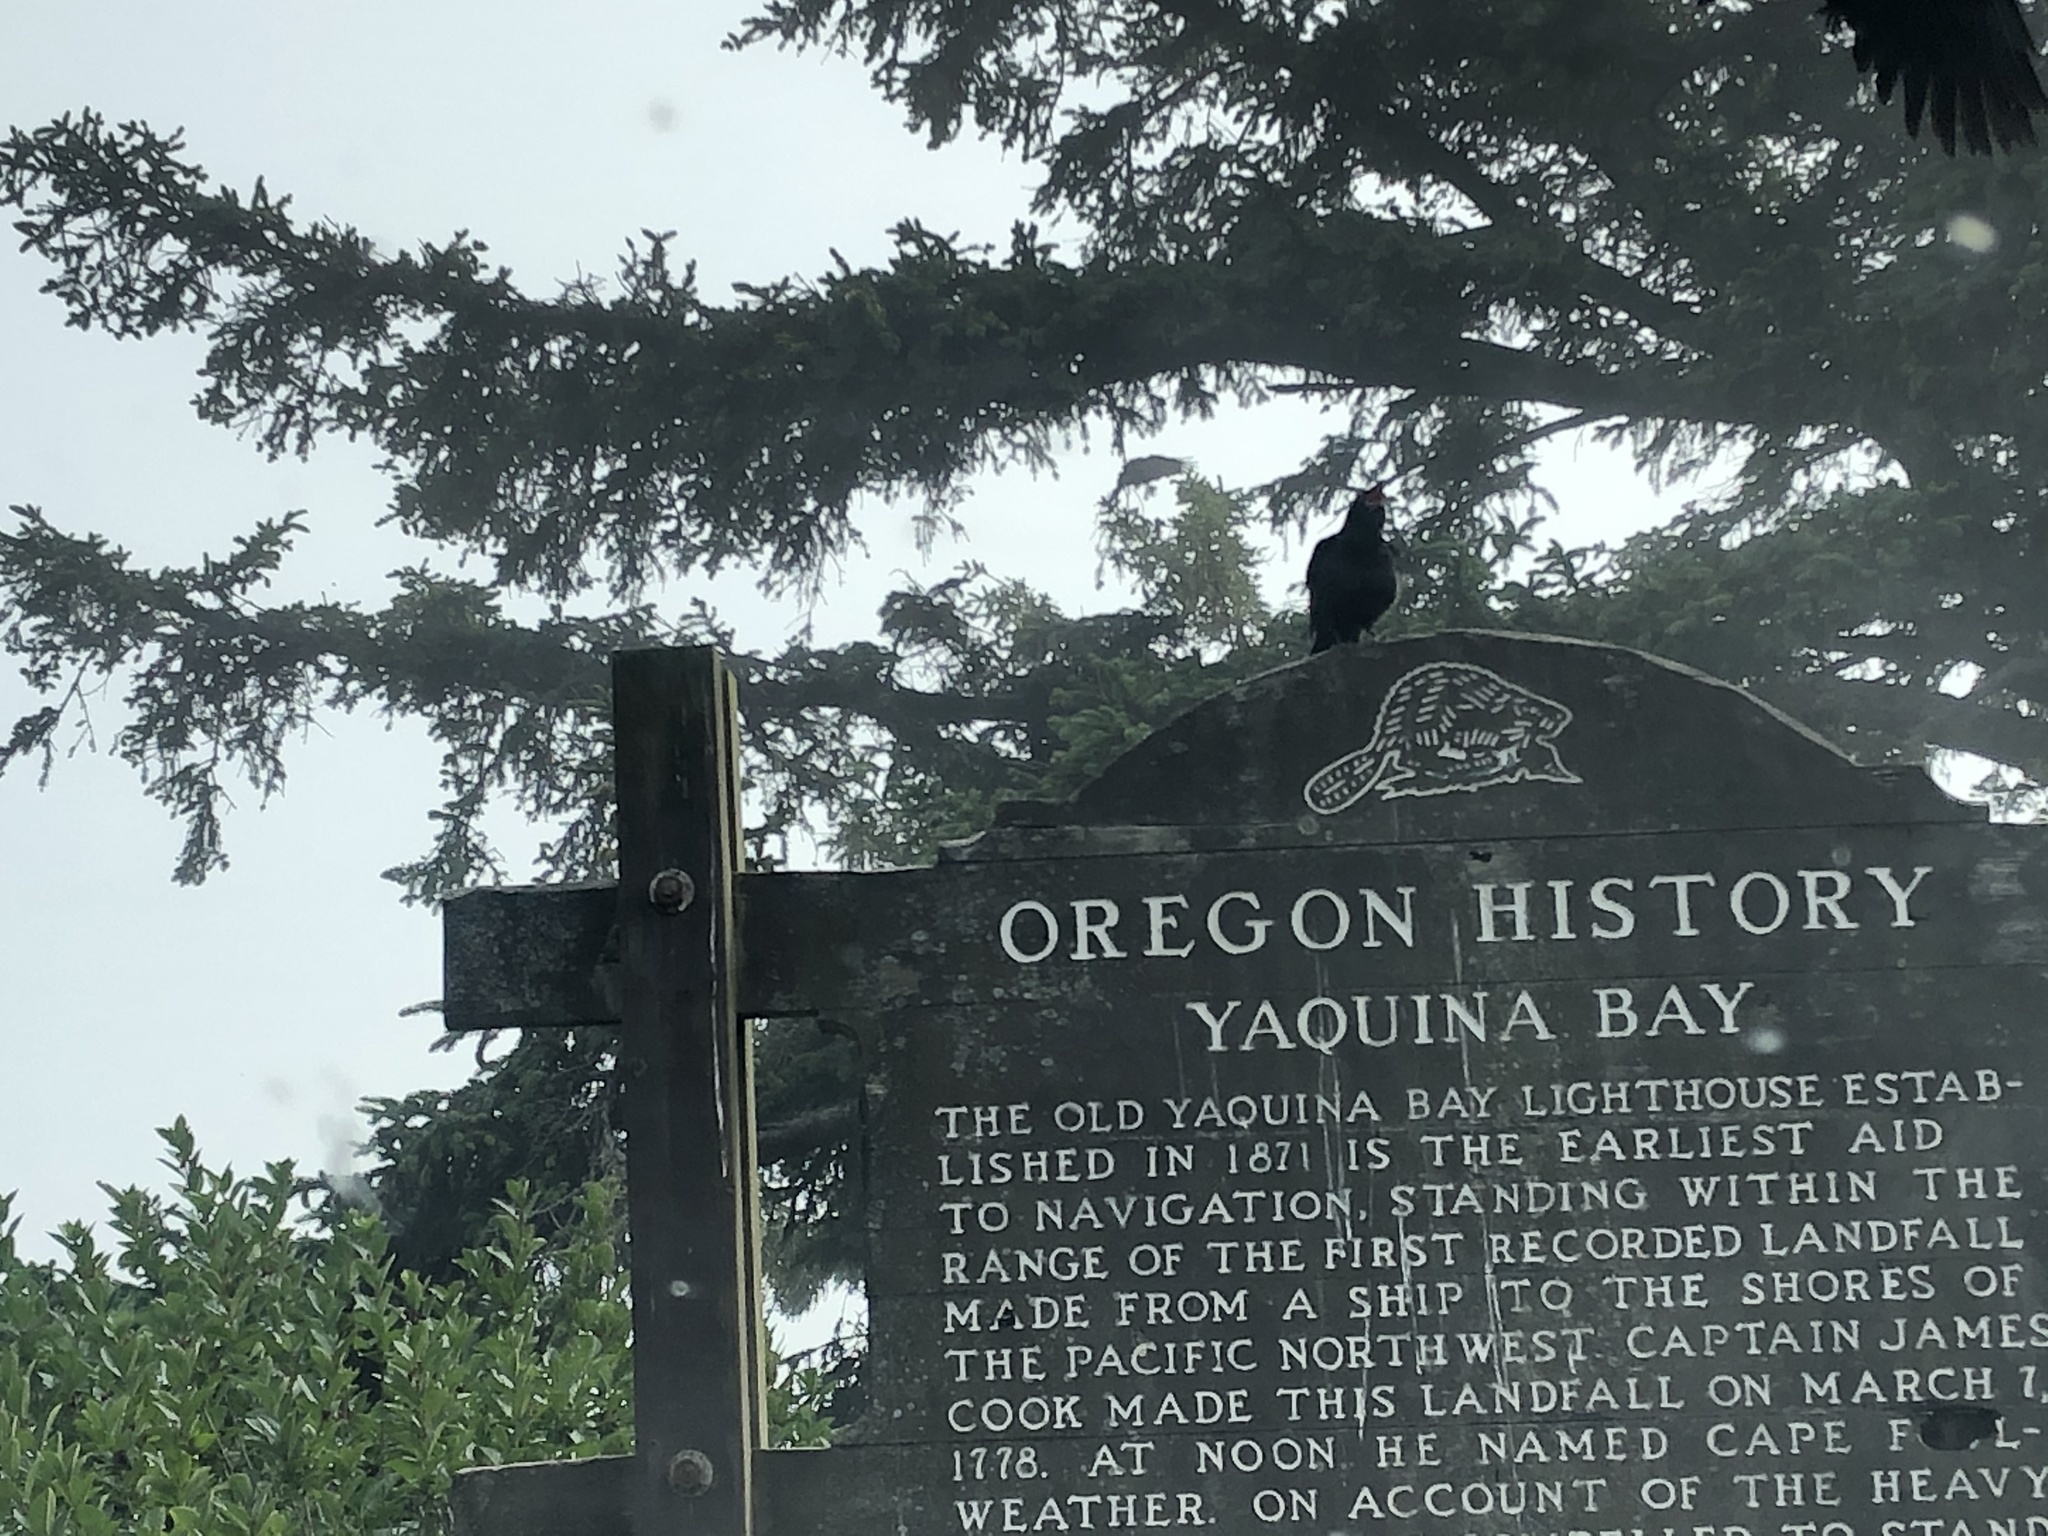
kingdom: Animalia
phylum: Chordata
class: Aves
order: Passeriformes
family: Corvidae
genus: Corvus
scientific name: Corvus brachyrhynchos
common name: American crow
